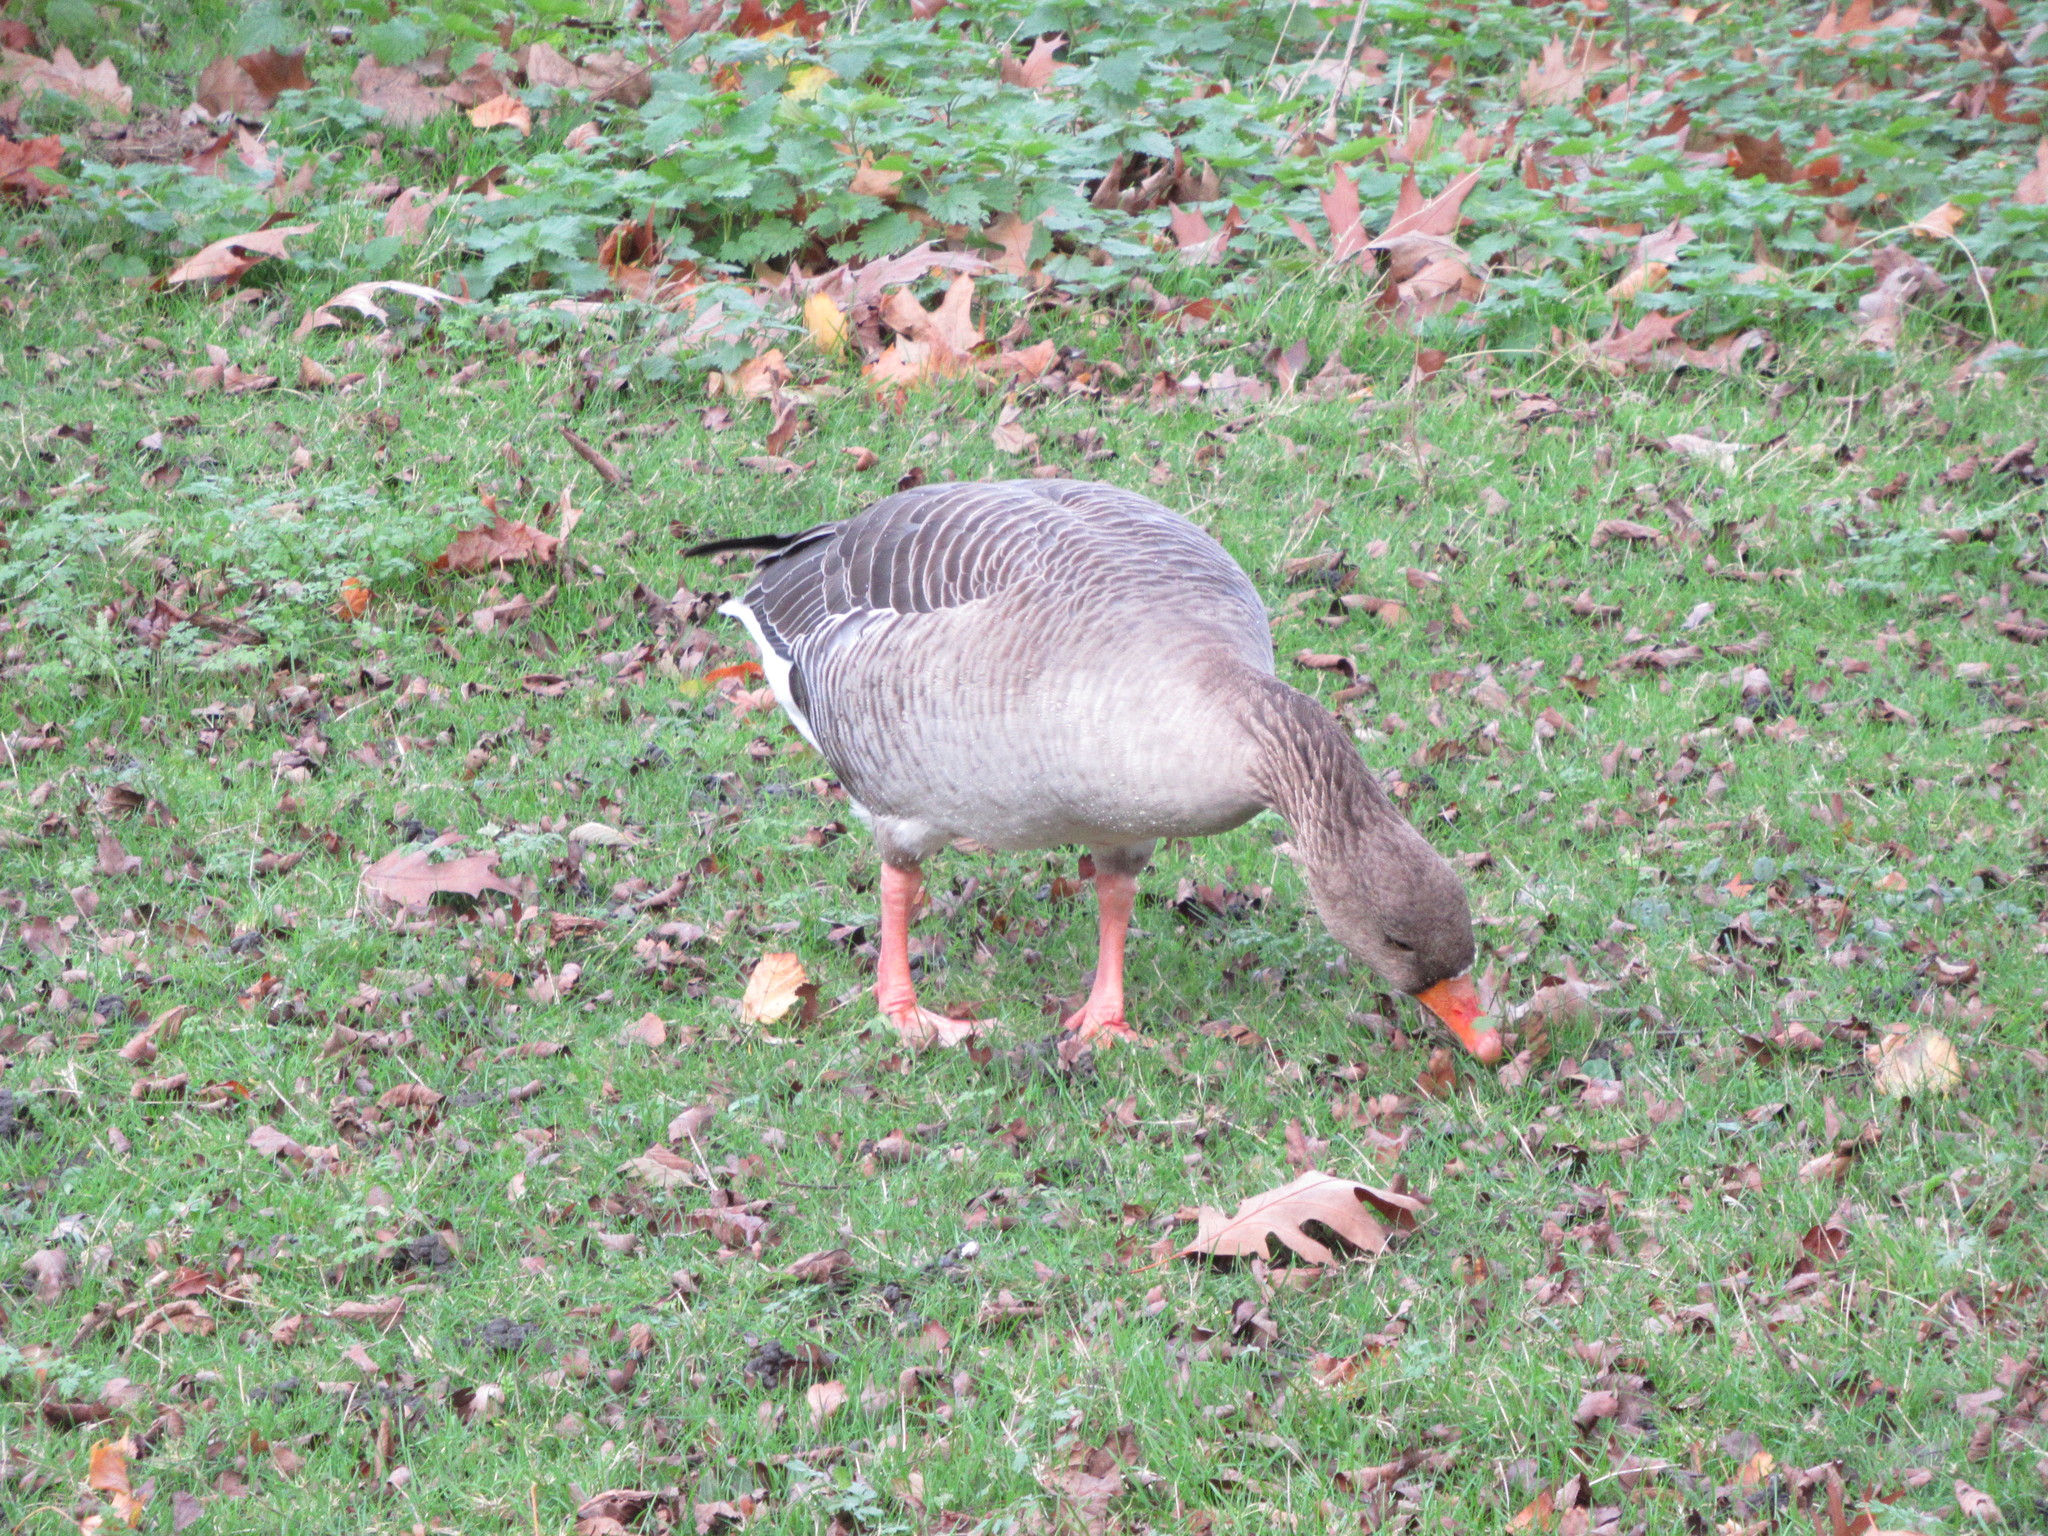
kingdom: Animalia
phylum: Chordata
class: Aves
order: Anseriformes
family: Anatidae
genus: Anser
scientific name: Anser anser
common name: Greylag goose
